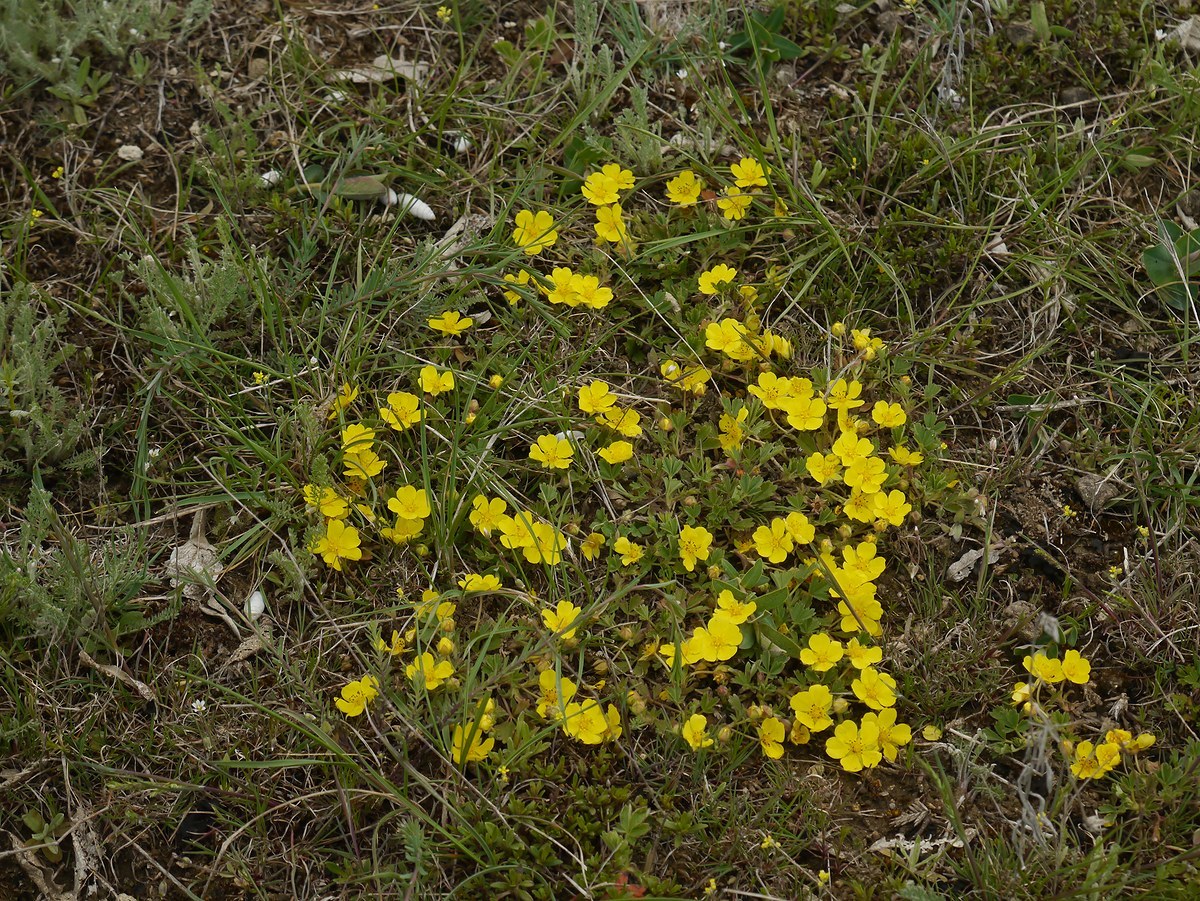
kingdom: Plantae
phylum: Tracheophyta
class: Magnoliopsida
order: Rosales
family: Rosaceae
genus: Potentilla
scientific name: Potentilla incana
